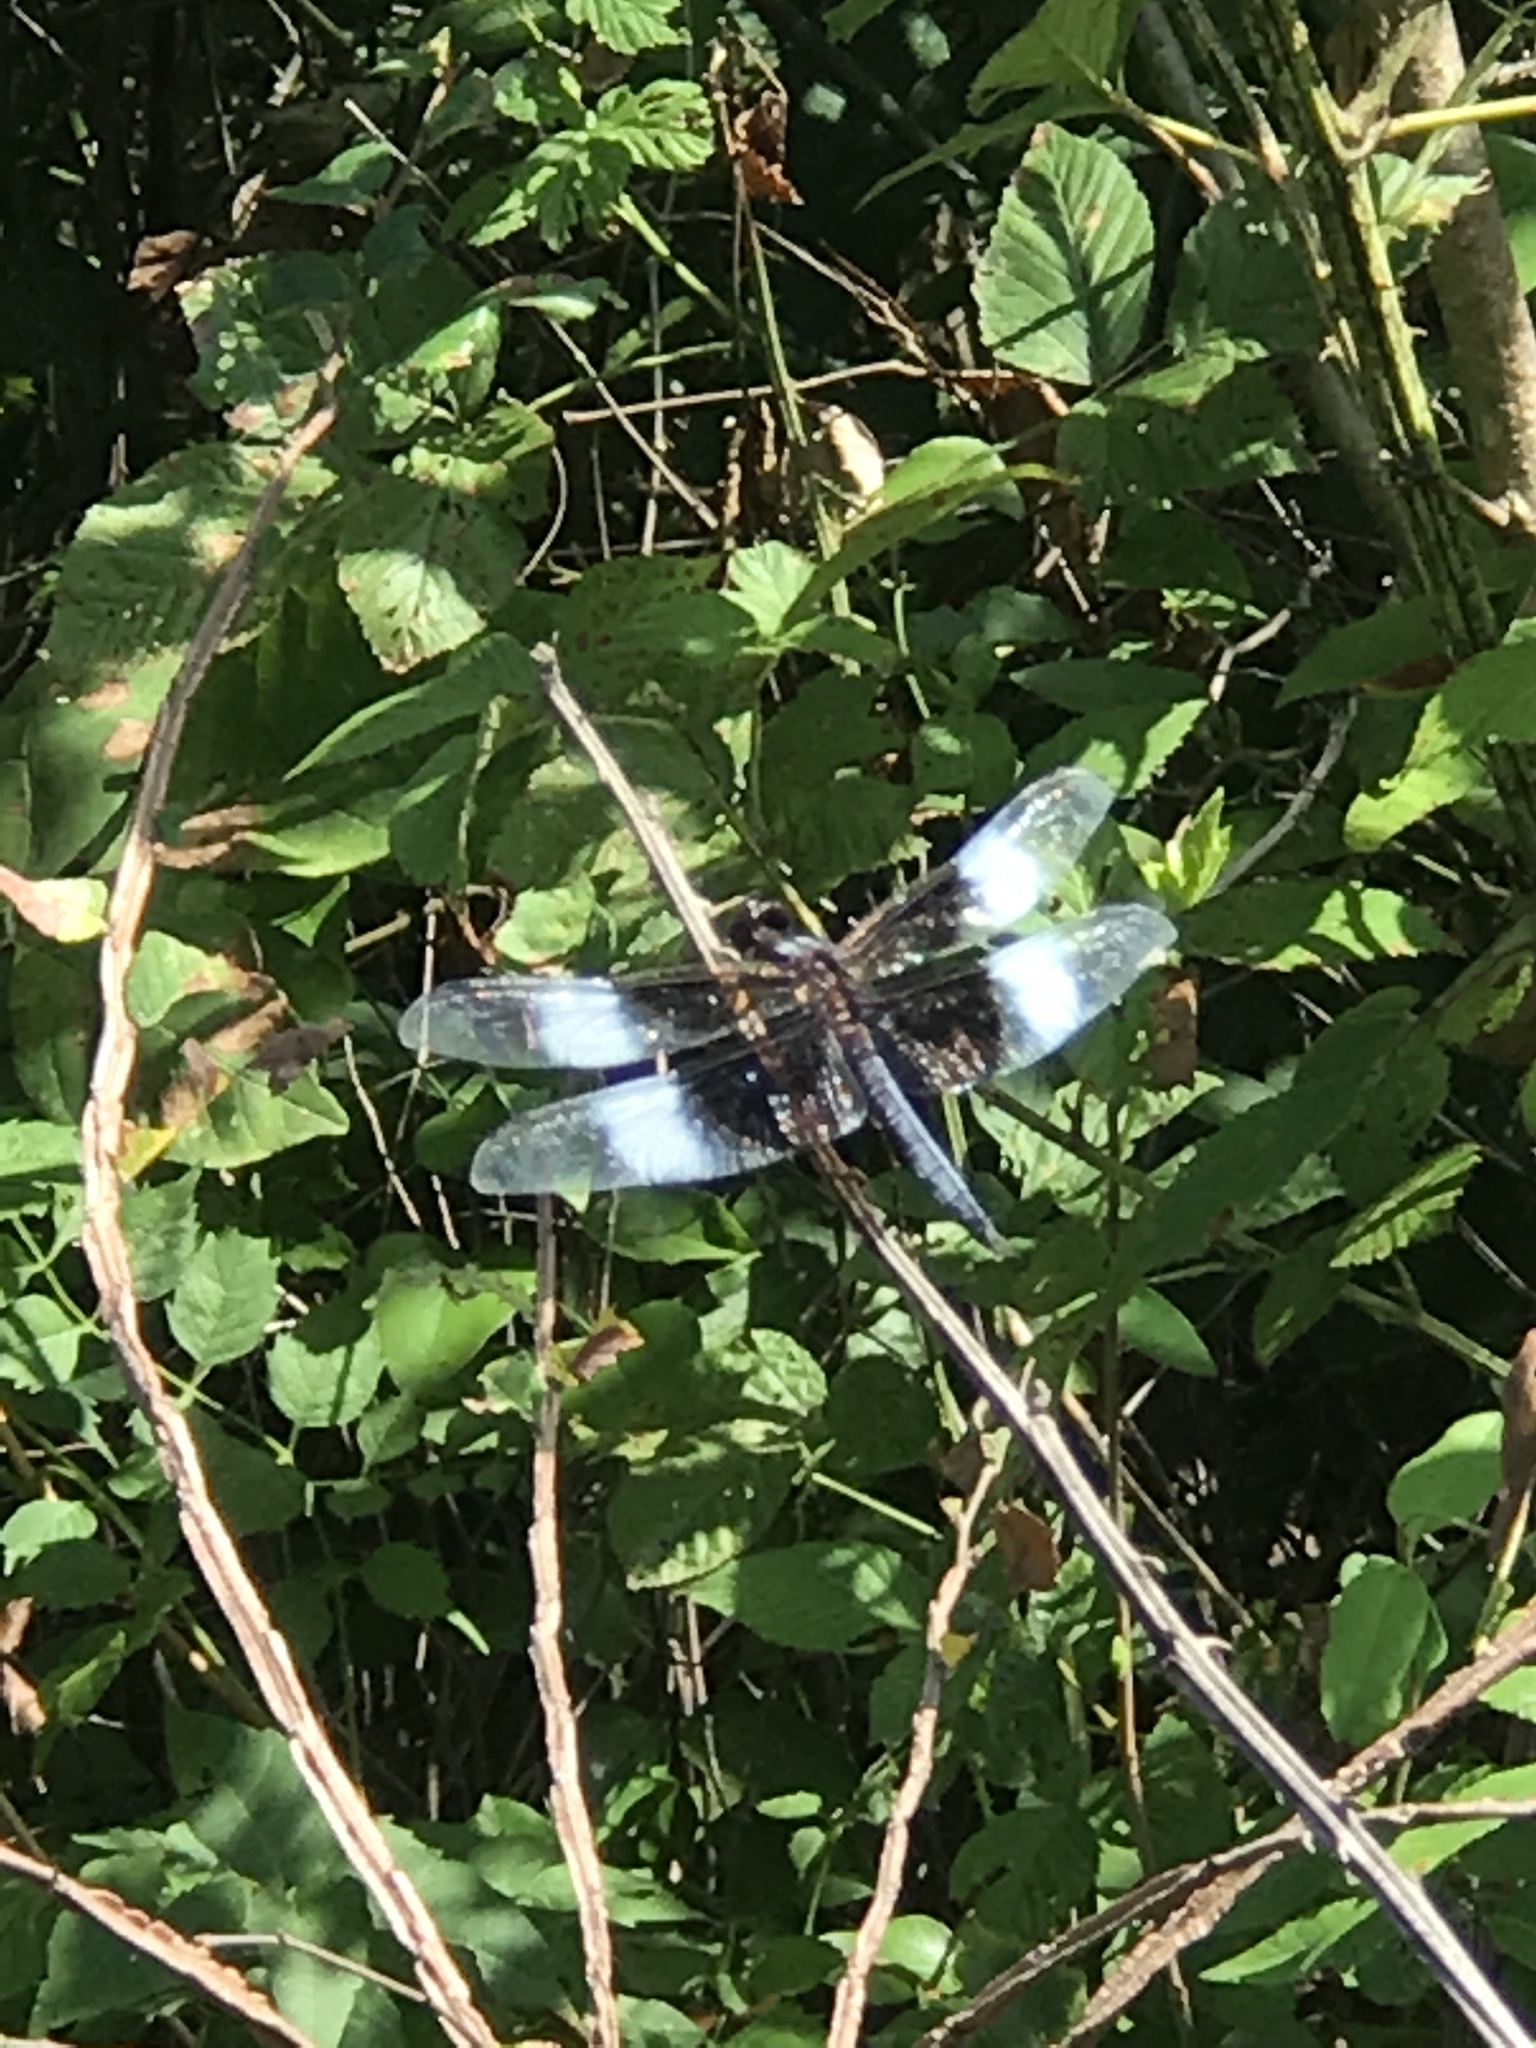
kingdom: Animalia
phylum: Arthropoda
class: Insecta
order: Odonata
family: Libellulidae
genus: Libellula
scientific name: Libellula luctuosa
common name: Widow skimmer
